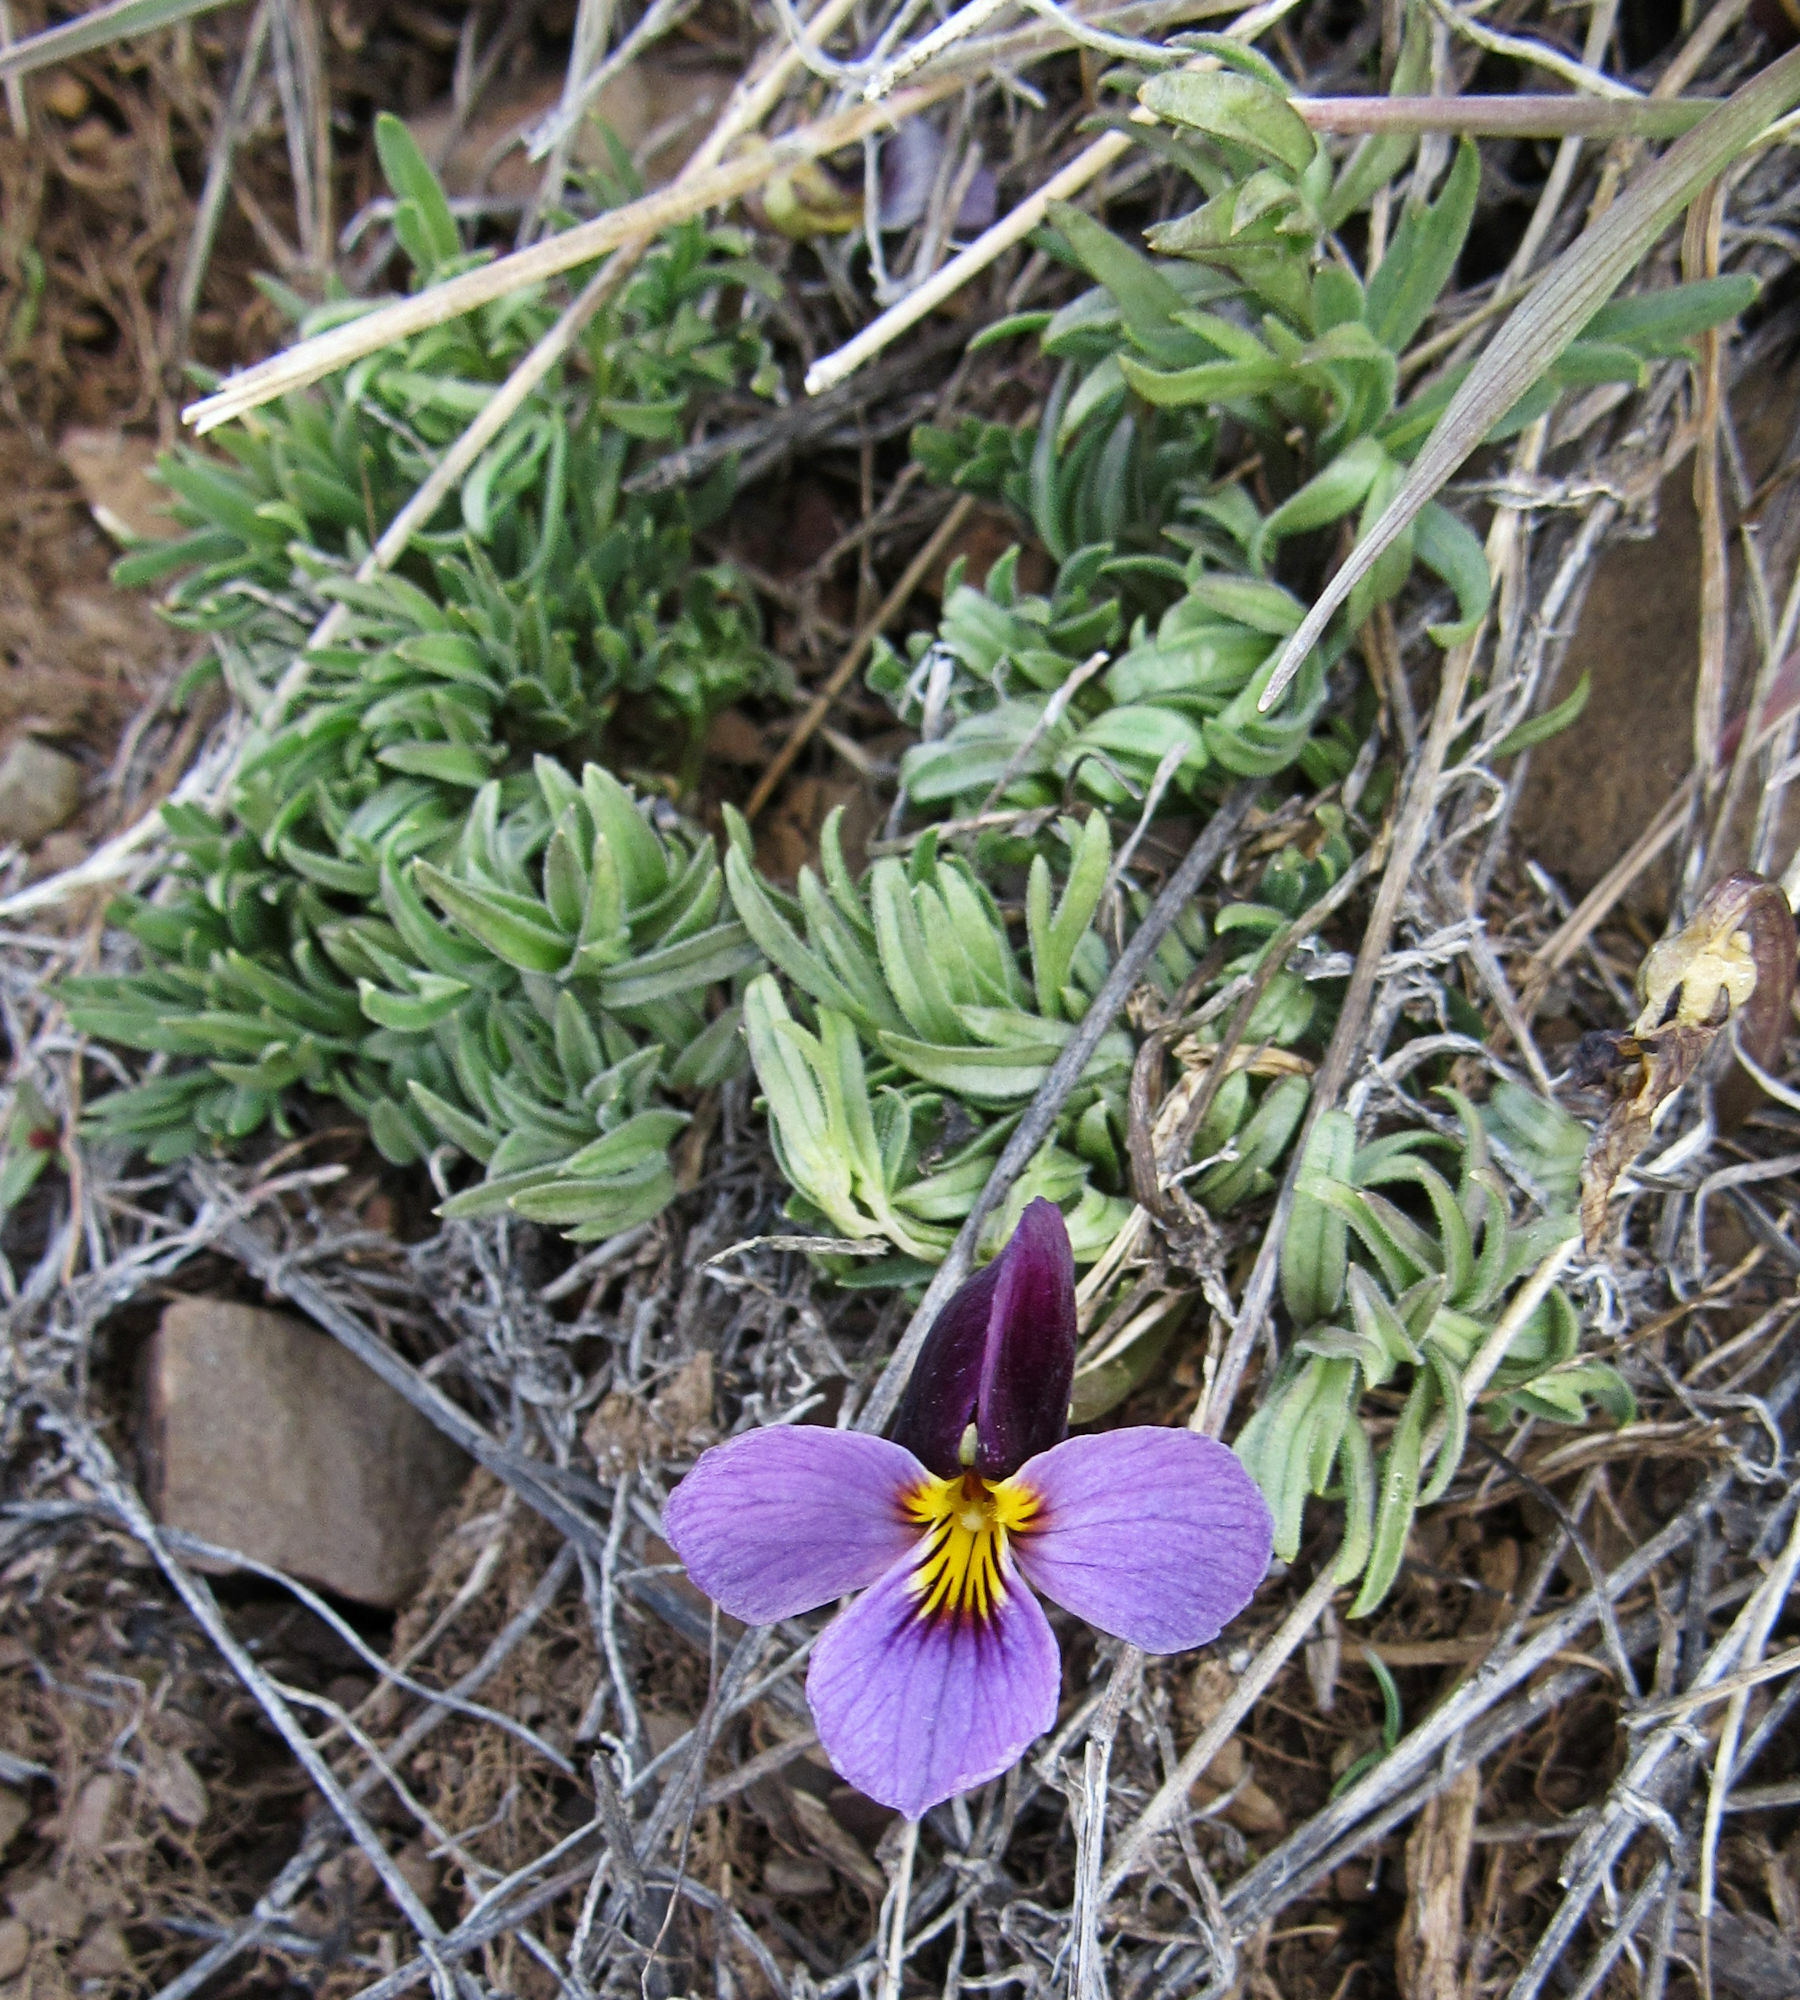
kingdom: Plantae
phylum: Tracheophyta
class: Magnoliopsida
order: Malpighiales
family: Violaceae
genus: Viola
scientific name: Viola beckwithii
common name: Beckwith's violet
